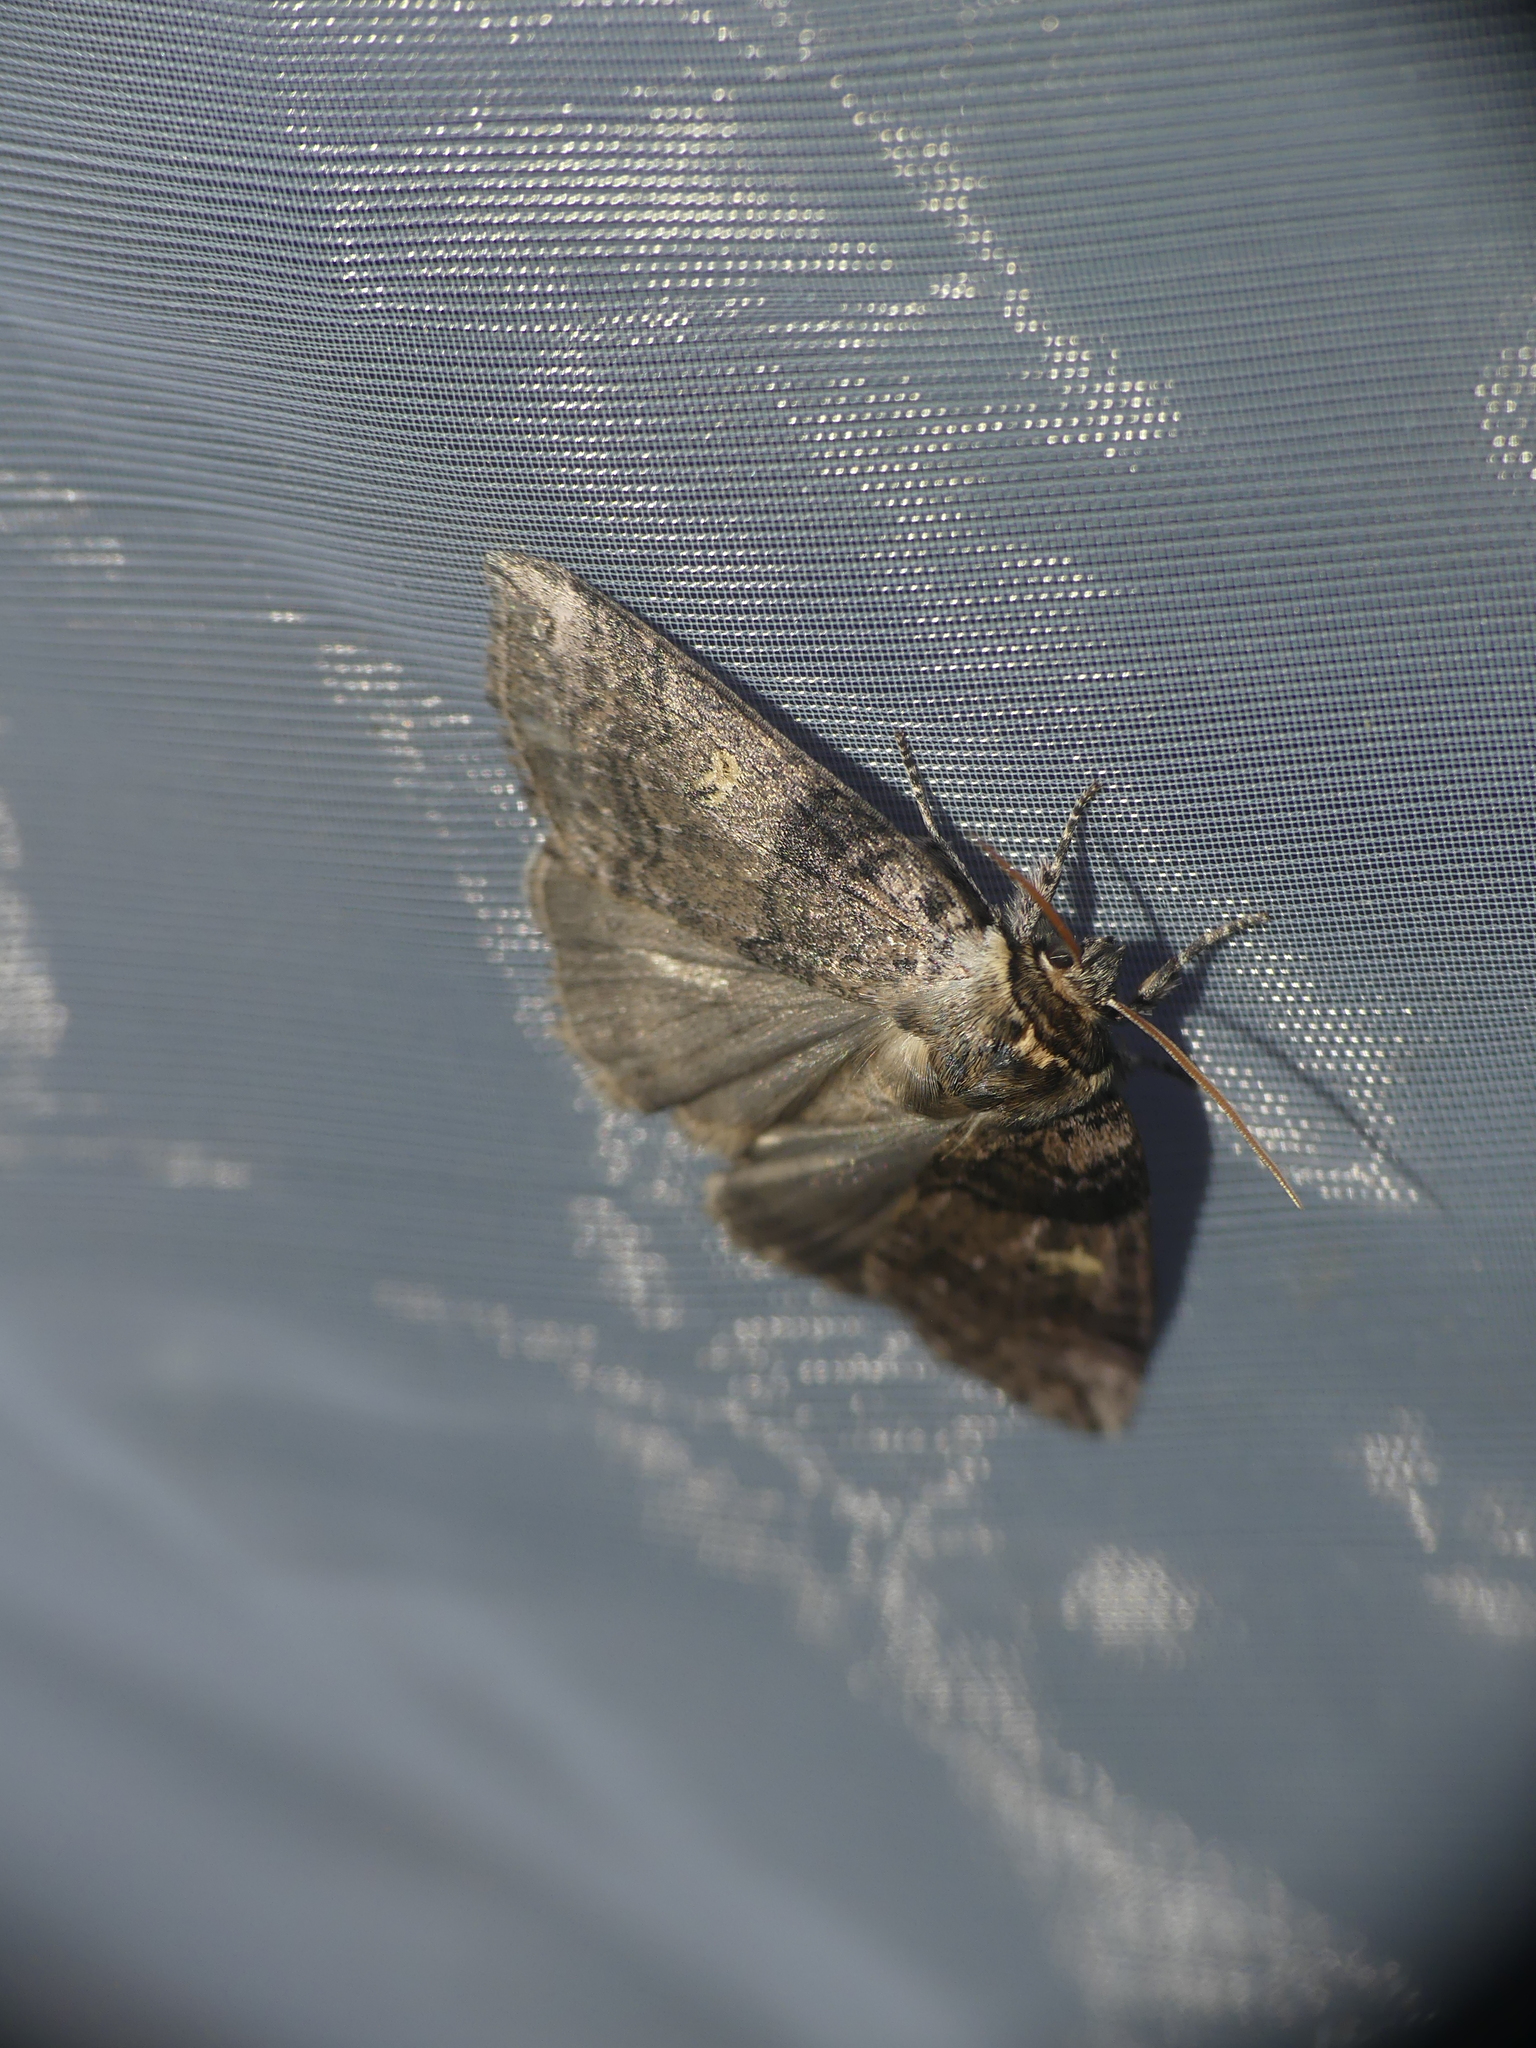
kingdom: Animalia
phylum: Arthropoda
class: Insecta
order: Lepidoptera
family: Drepanidae
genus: Tethea
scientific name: Tethea or
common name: Poplar lutestring
